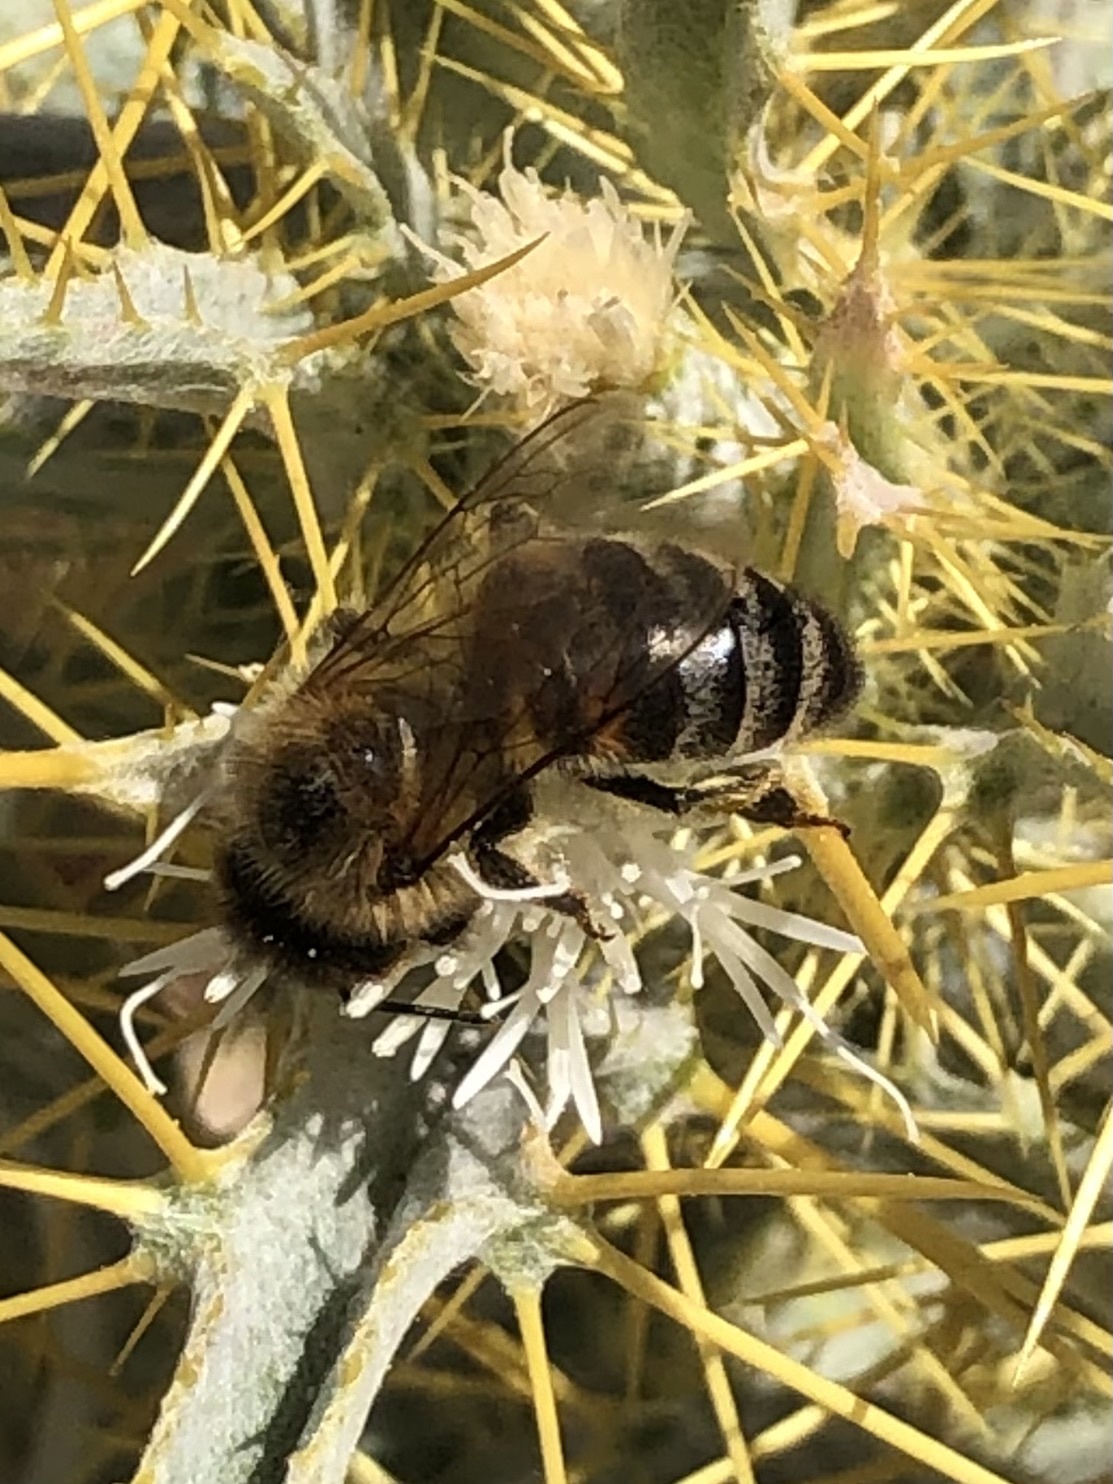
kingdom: Animalia
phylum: Arthropoda
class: Insecta
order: Hymenoptera
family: Apidae
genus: Apis
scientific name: Apis mellifera
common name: Honey bee
